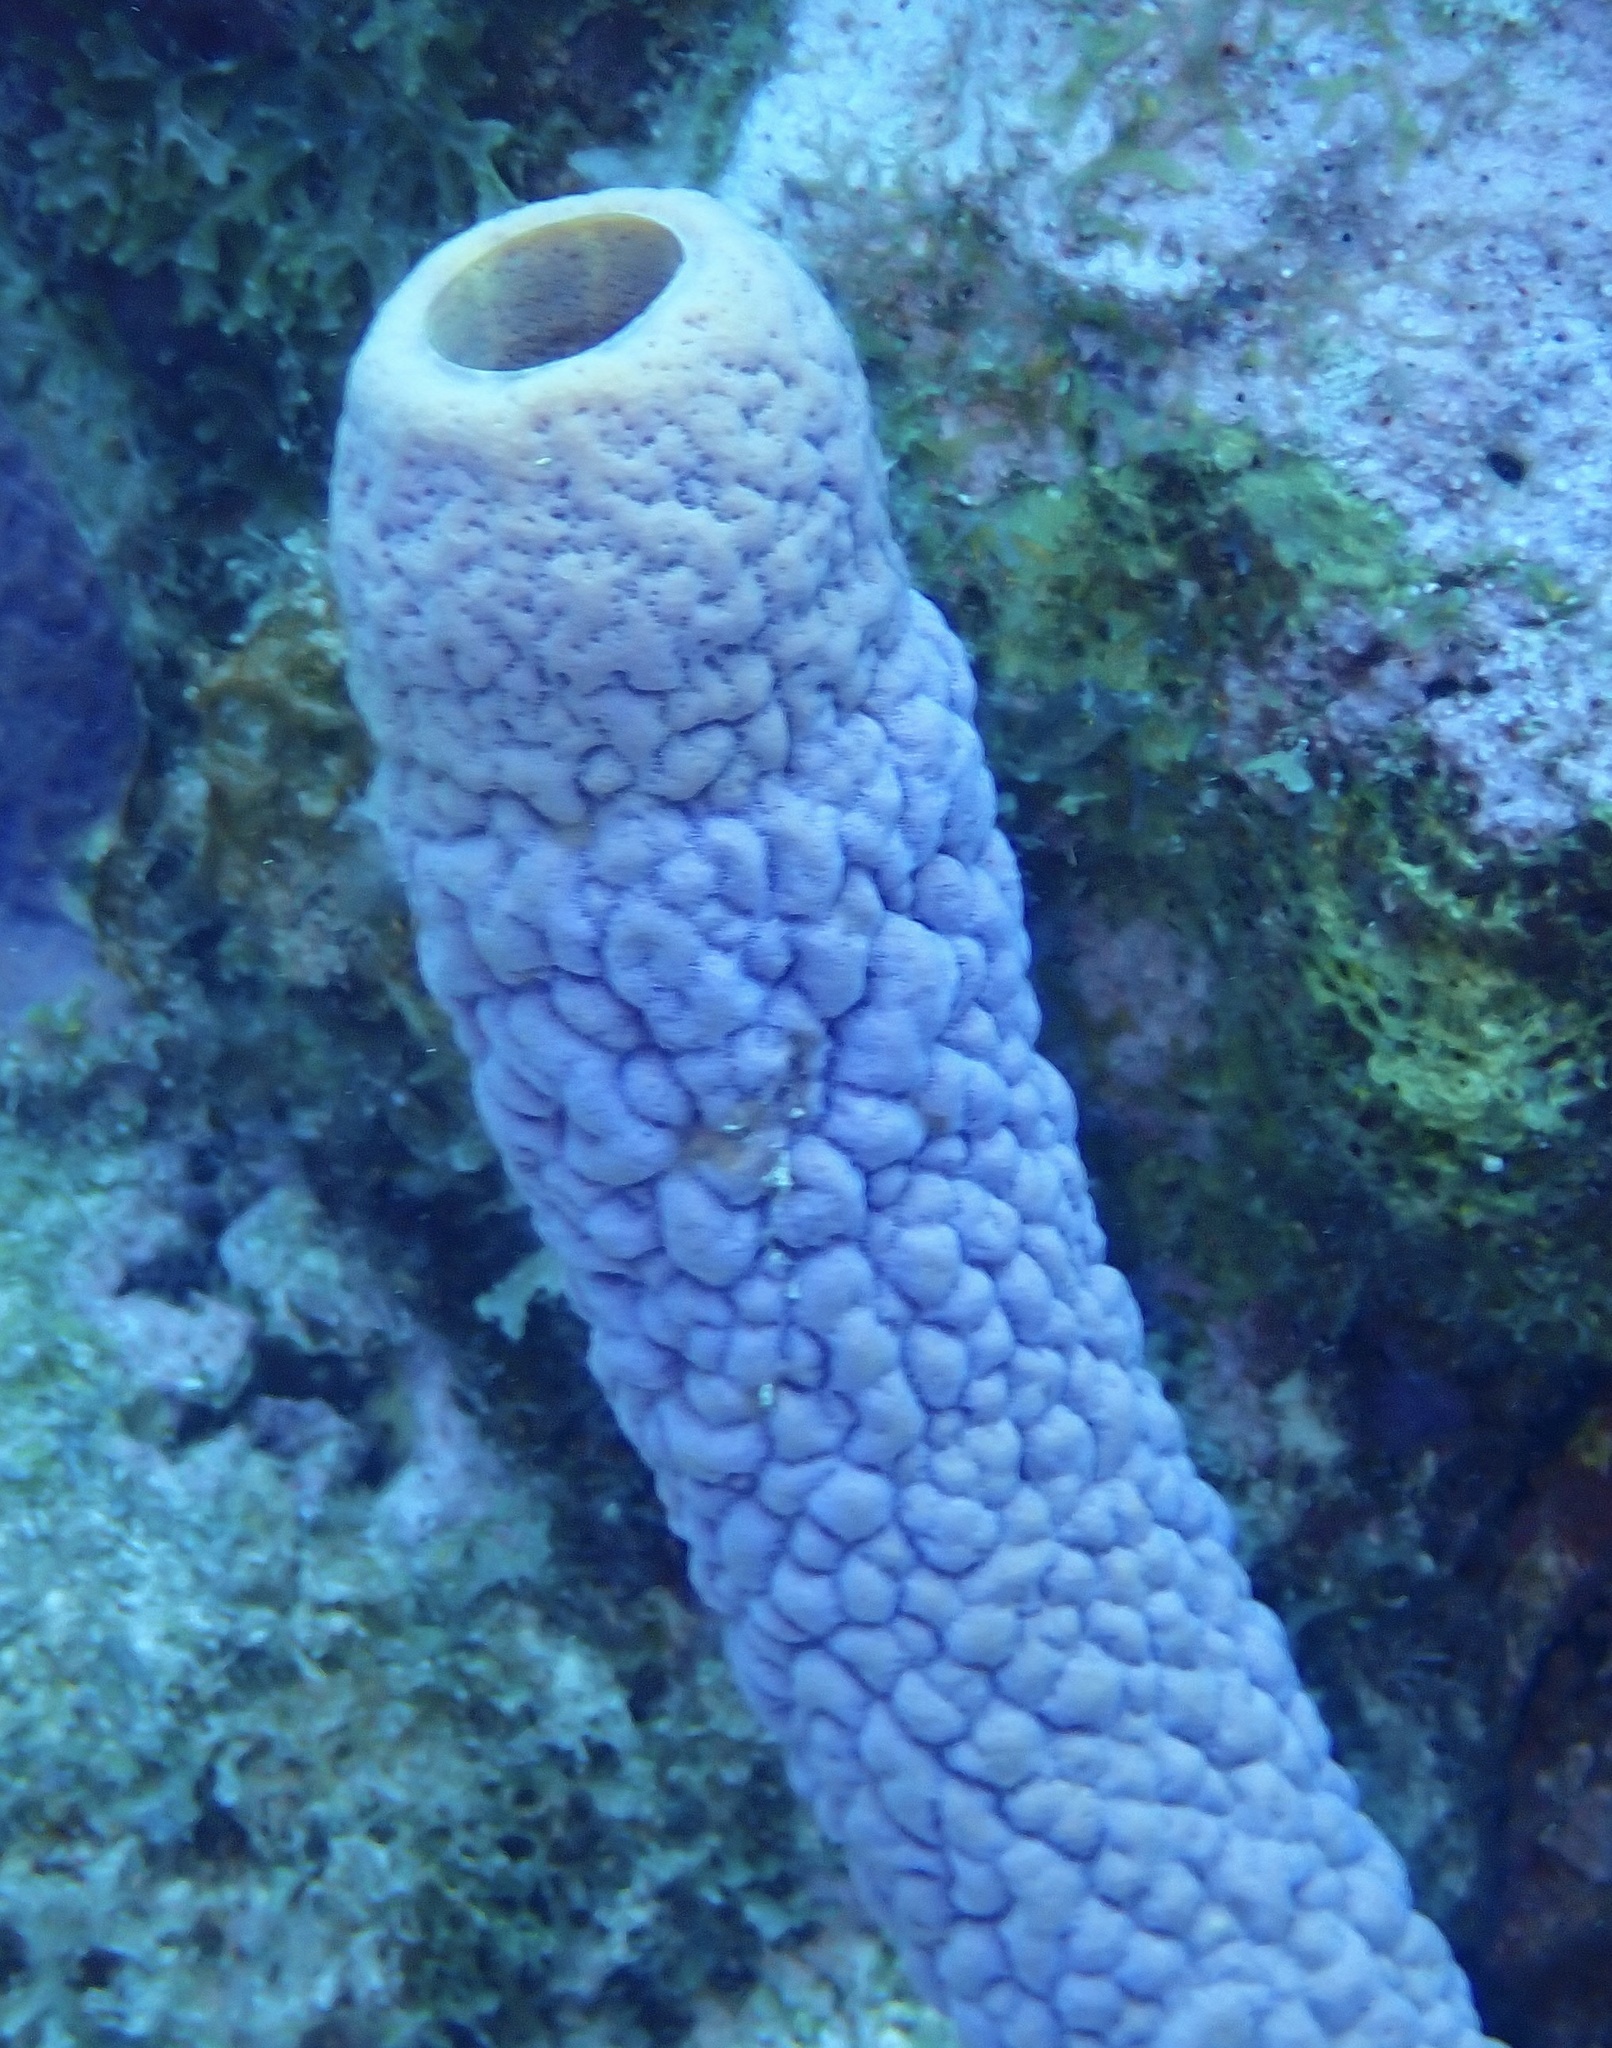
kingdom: Animalia
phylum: Porifera
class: Demospongiae
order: Verongiida
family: Aplysinidae
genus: Aplysina
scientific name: Aplysina archeri
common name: Stove-pipe sponge
